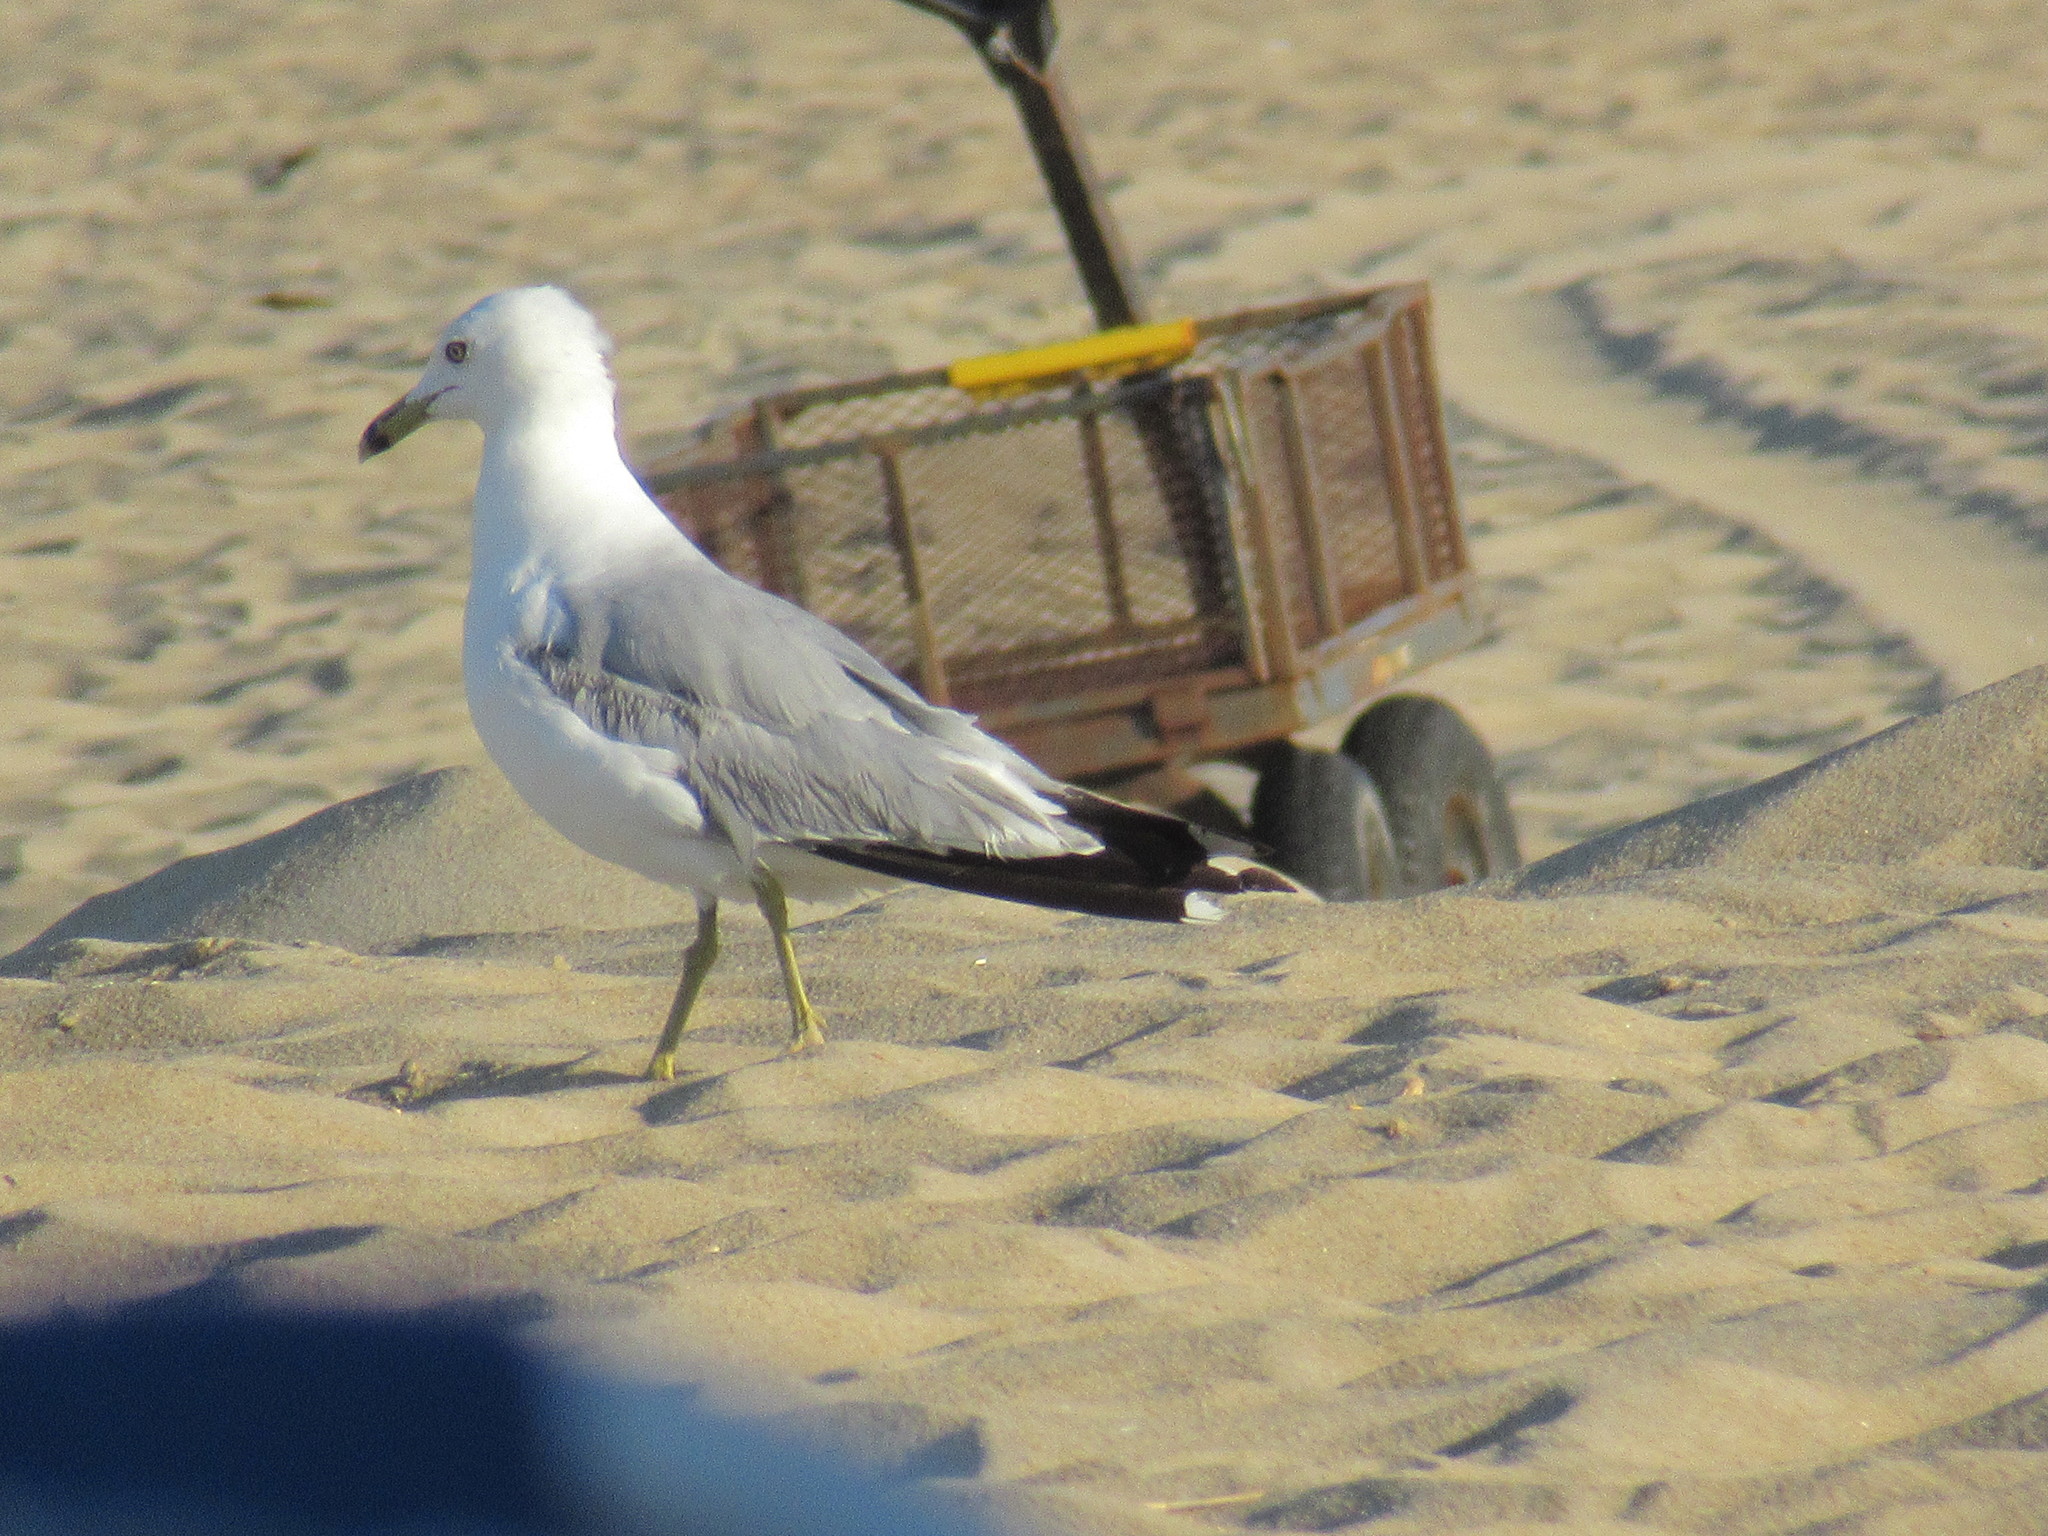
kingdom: Animalia
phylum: Chordata
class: Aves
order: Charadriiformes
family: Laridae
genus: Larus
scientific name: Larus delawarensis
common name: Ring-billed gull
